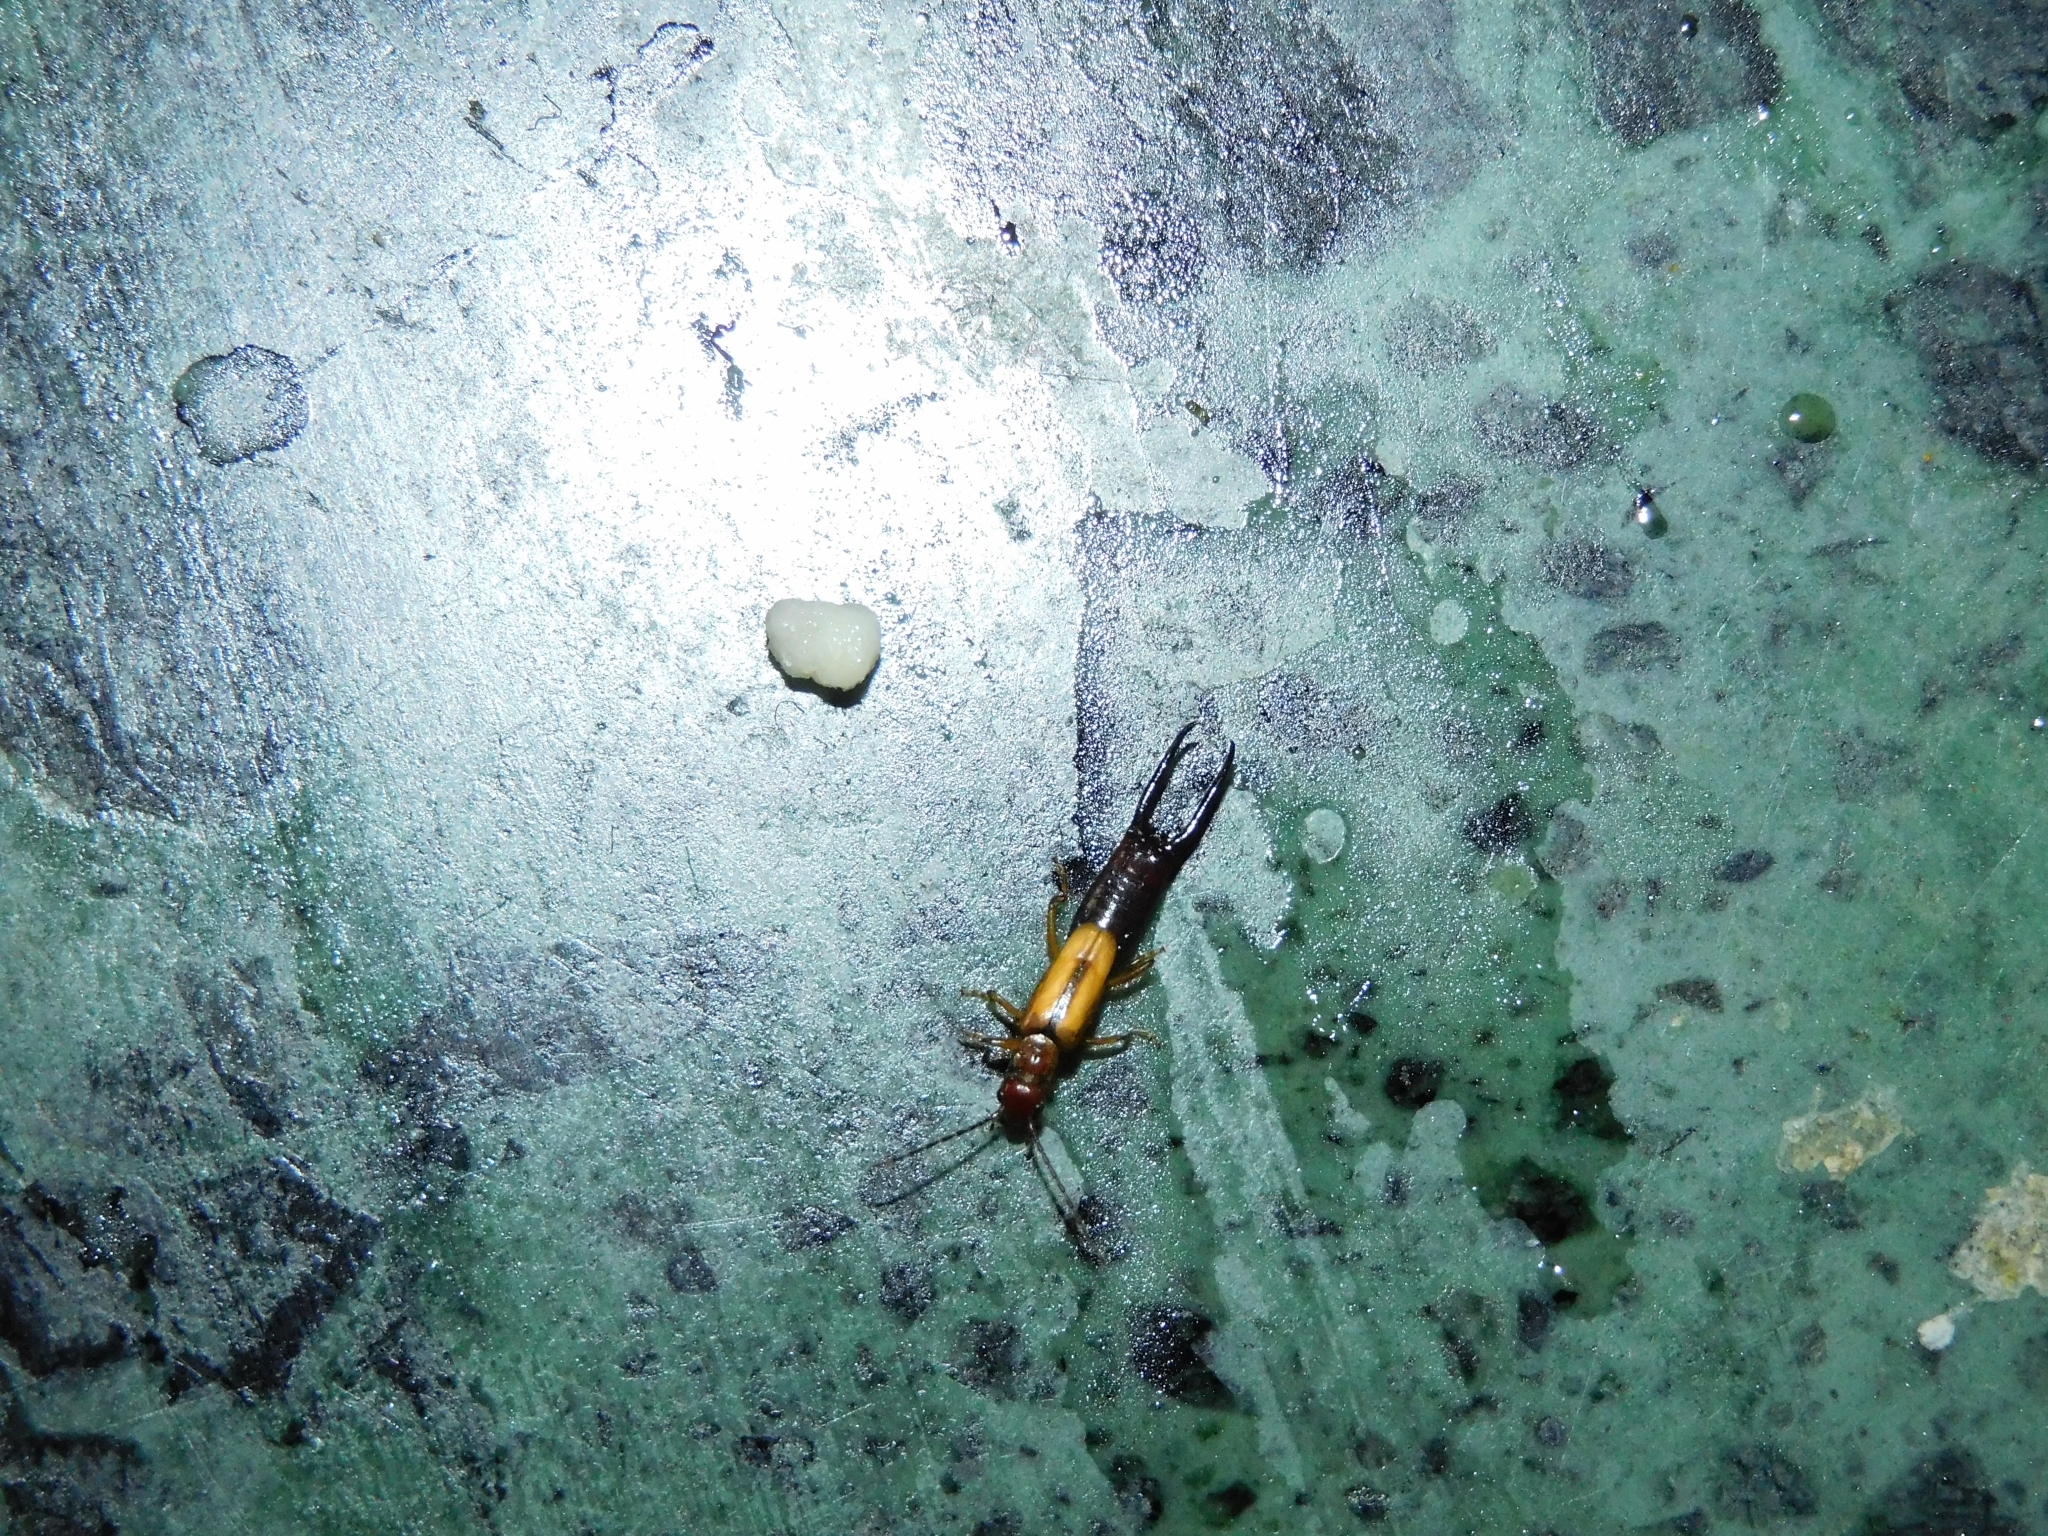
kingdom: Animalia
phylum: Arthropoda
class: Insecta
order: Dermaptera
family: Forficulidae
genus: Elaunon
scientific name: Elaunon bipartitus
